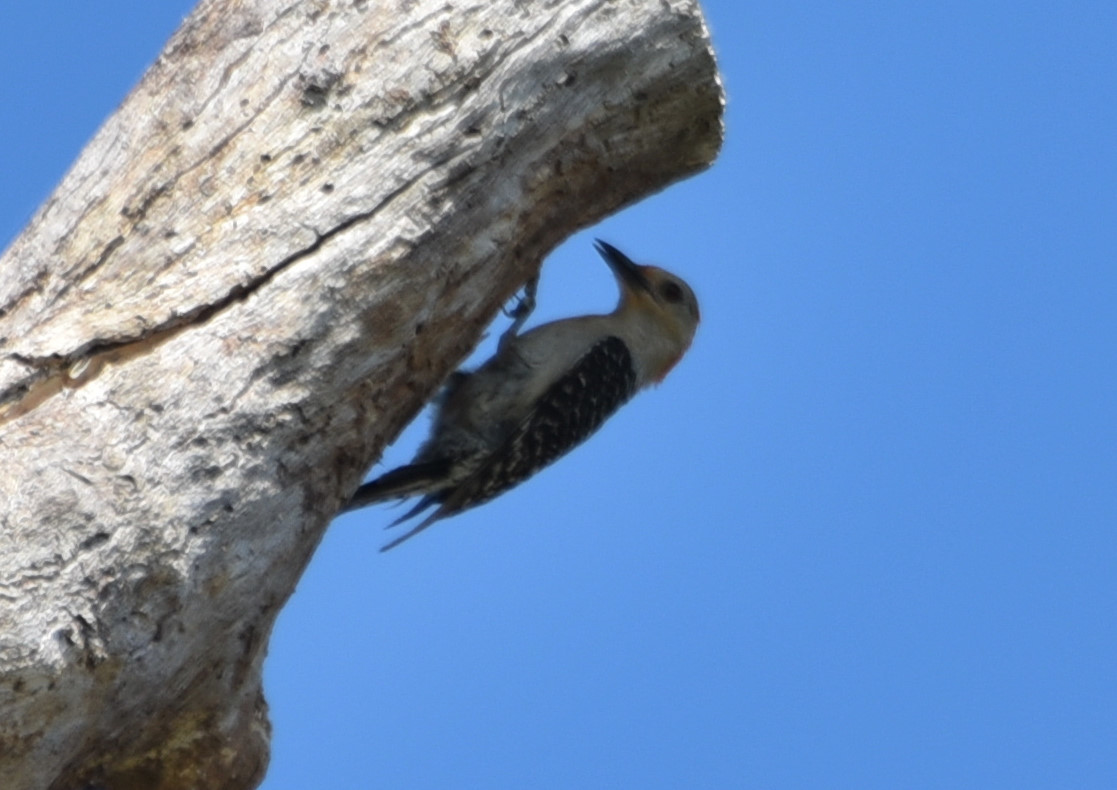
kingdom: Animalia
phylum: Chordata
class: Aves
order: Piciformes
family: Picidae
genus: Melanerpes
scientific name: Melanerpes carolinus
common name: Red-bellied woodpecker
